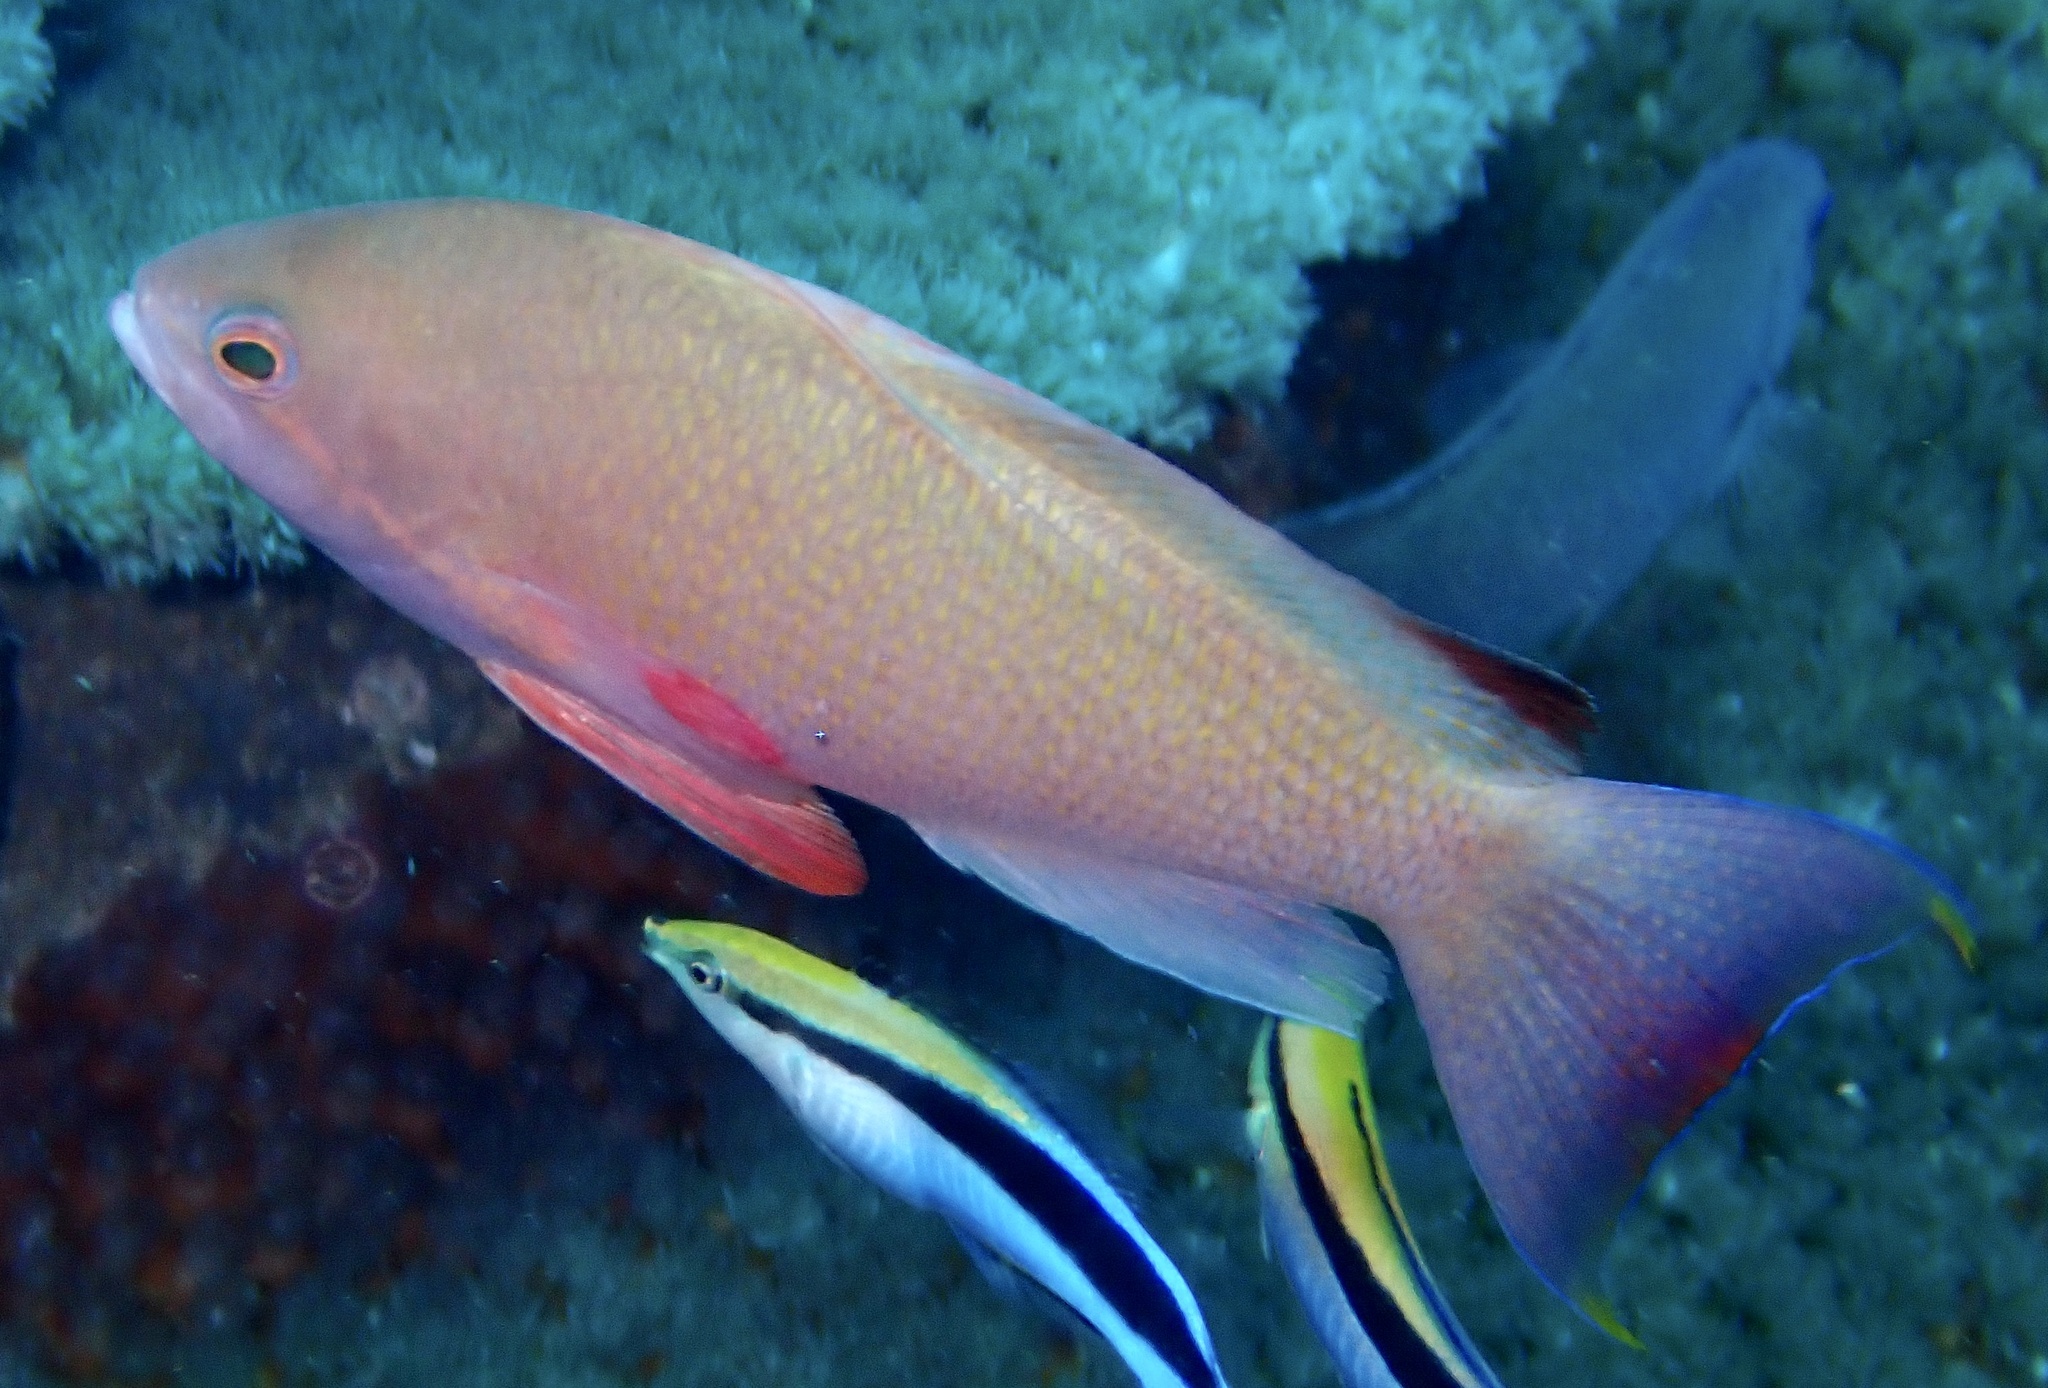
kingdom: Animalia
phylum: Chordata
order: Perciformes
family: Serranidae
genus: Pseudanthias
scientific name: Pseudanthias squamipinnis
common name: Scalefin anthias
